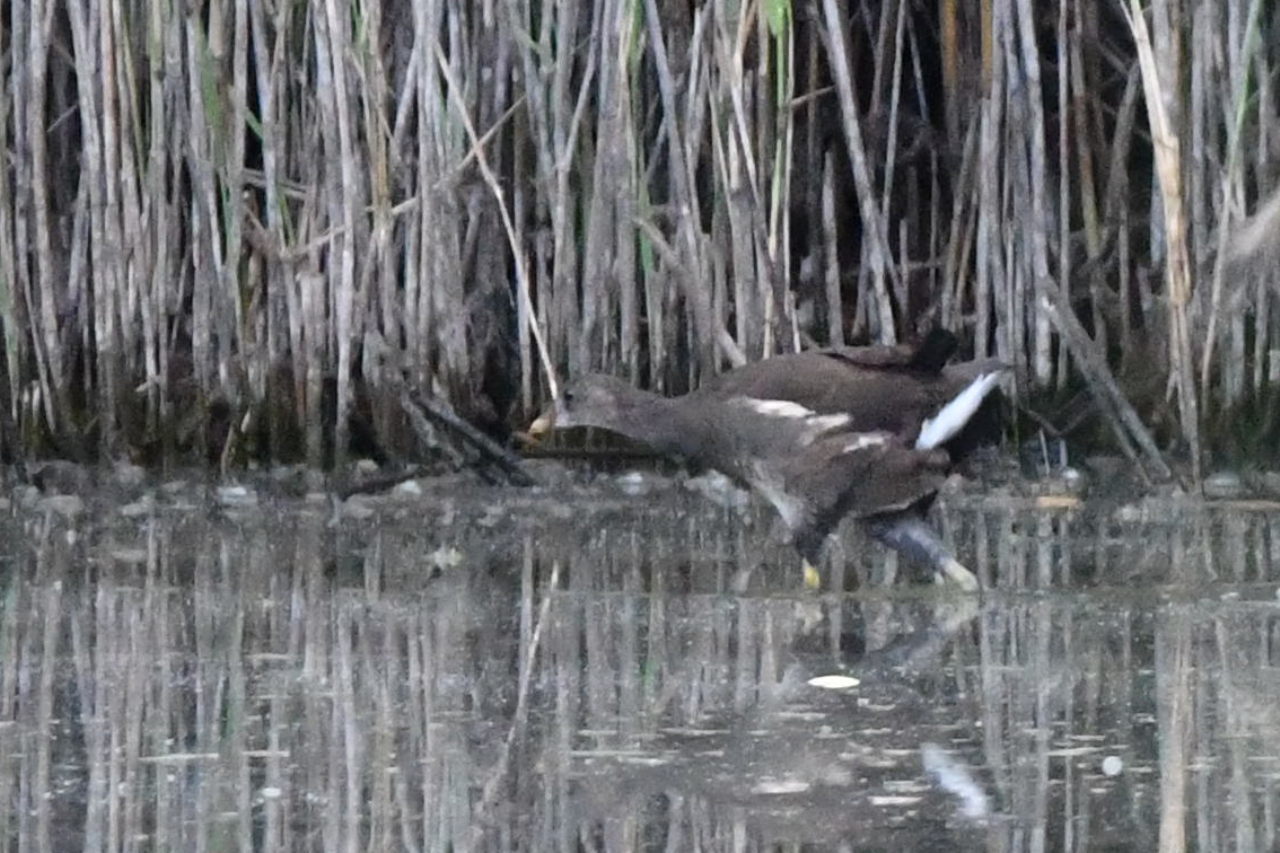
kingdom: Animalia
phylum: Chordata
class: Aves
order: Gruiformes
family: Rallidae
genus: Gallinula
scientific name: Gallinula chloropus
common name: Common moorhen
